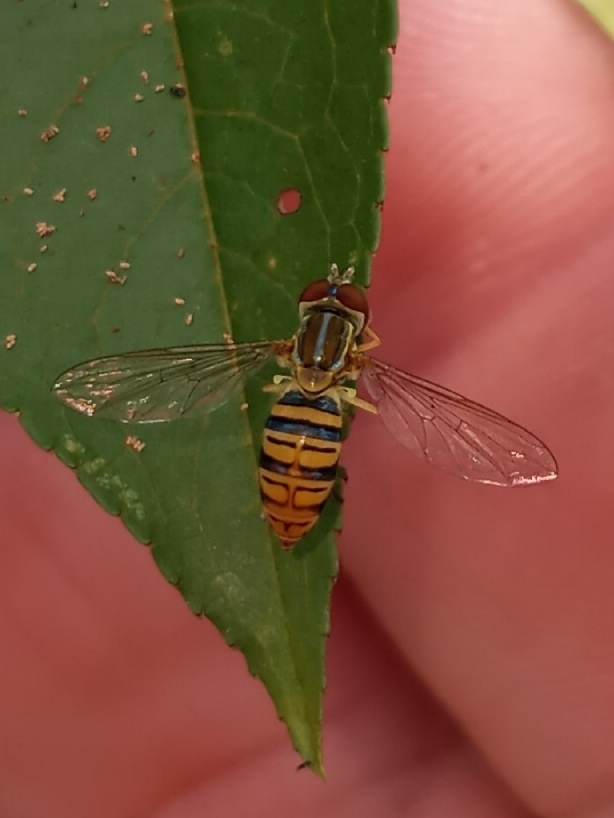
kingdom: Animalia
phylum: Arthropoda
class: Insecta
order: Diptera
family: Syrphidae
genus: Toxomerus
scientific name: Toxomerus politus
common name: Maize calligrapher
